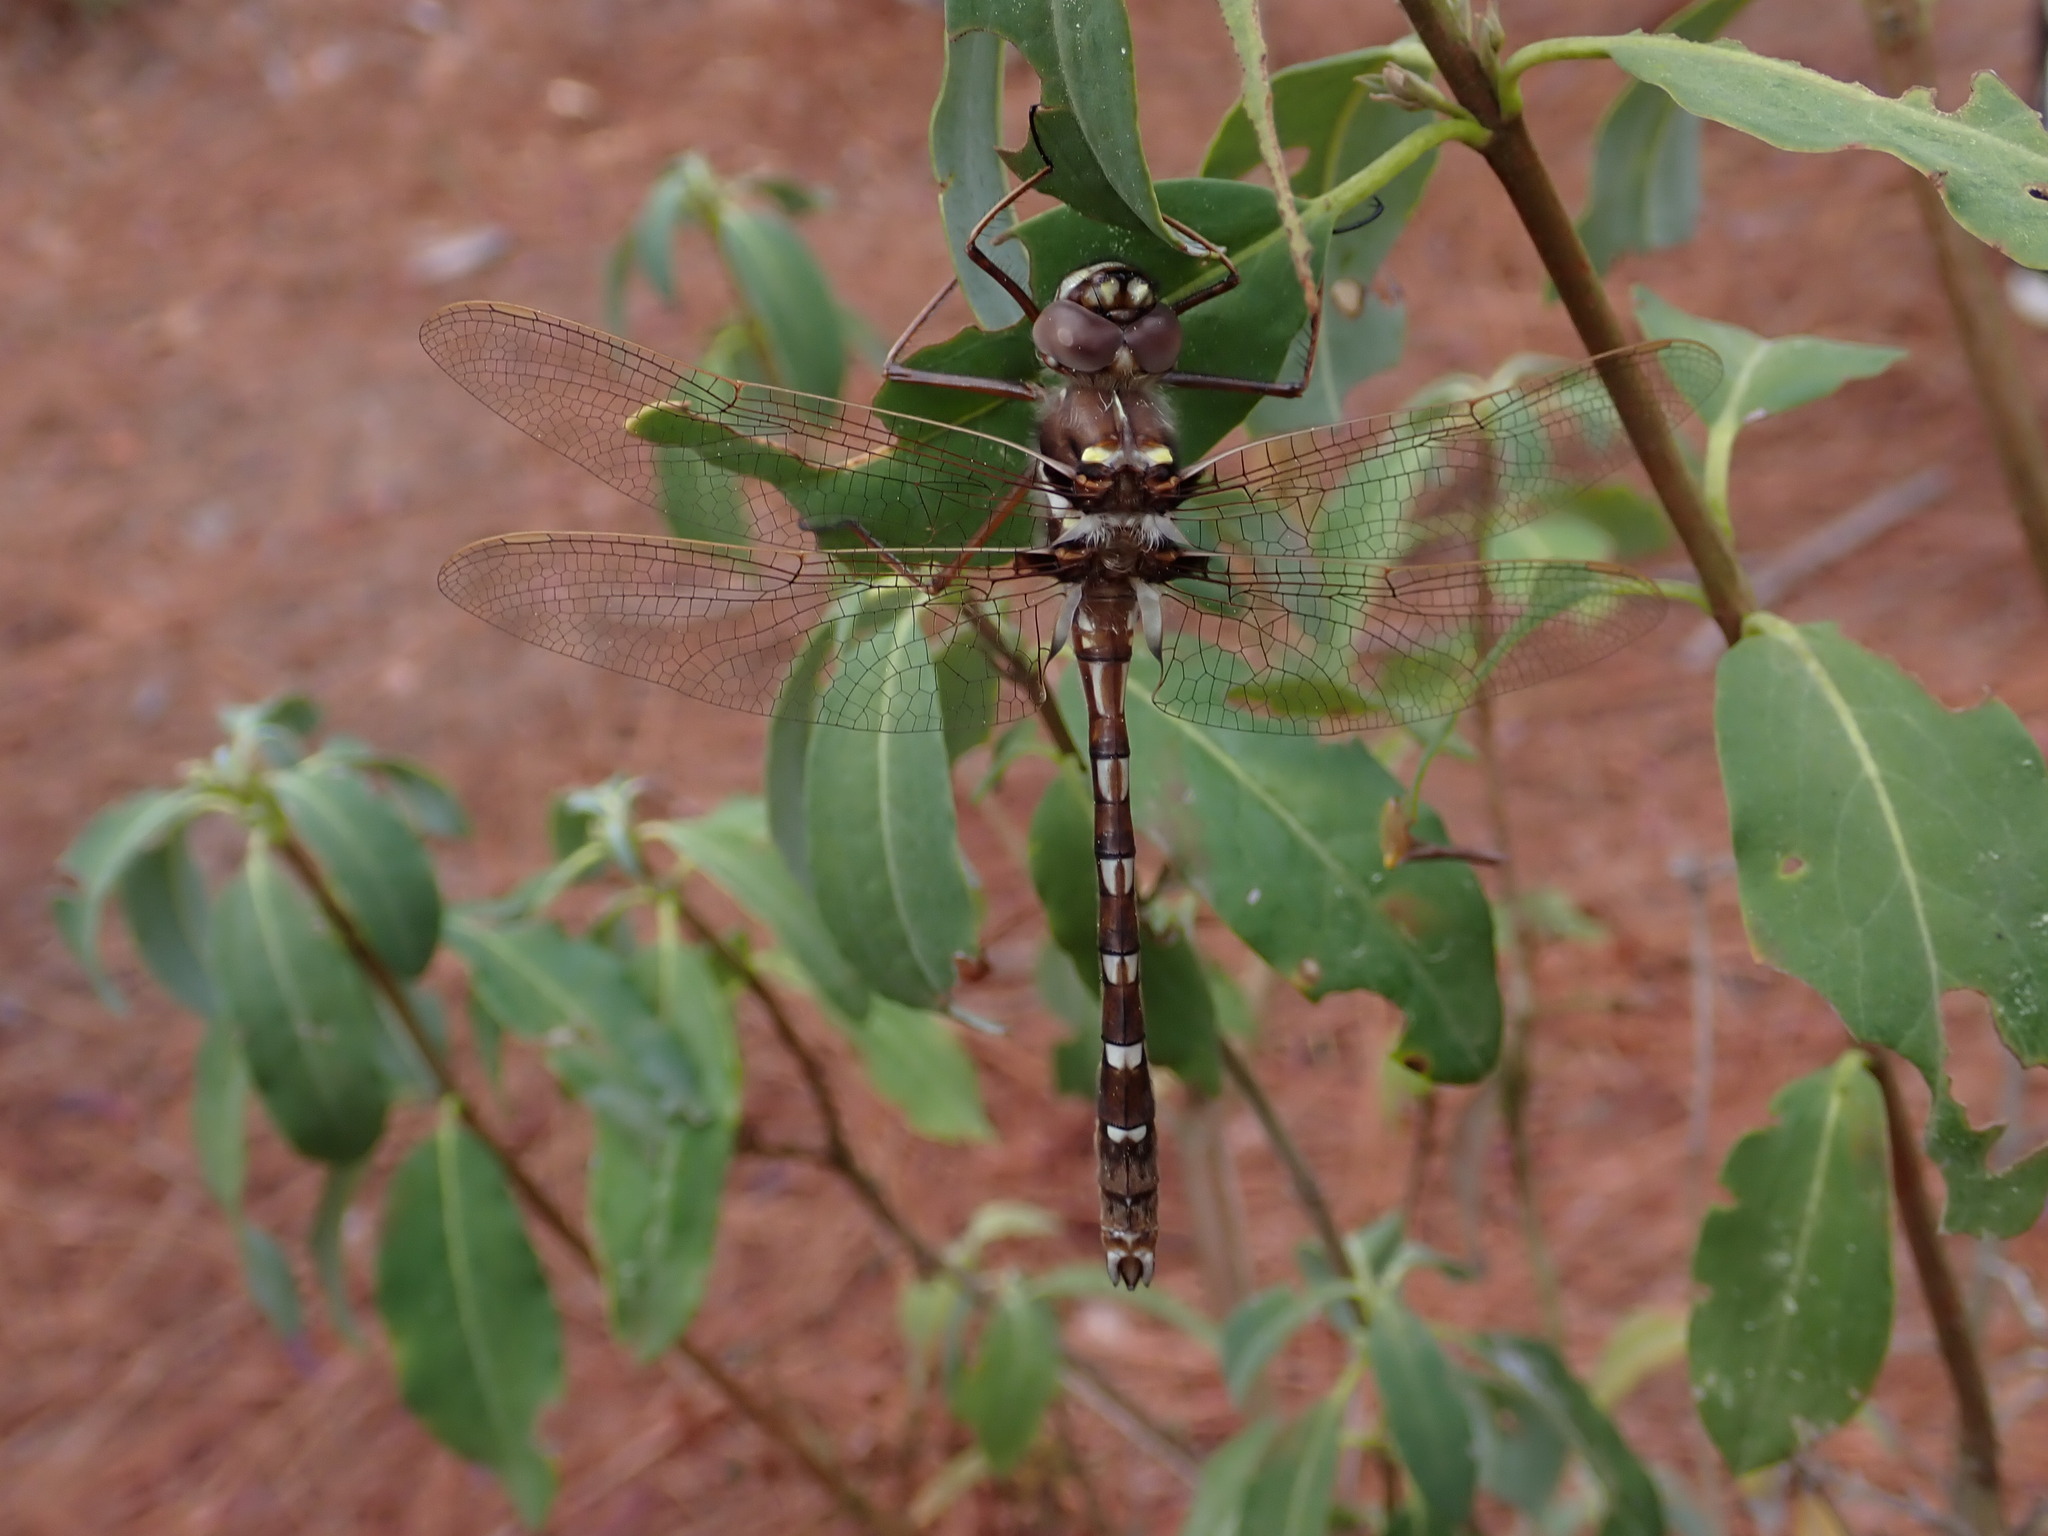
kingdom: Animalia
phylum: Arthropoda
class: Insecta
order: Odonata
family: Macromiidae
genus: Didymops
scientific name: Didymops transversa
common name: Stream cruiser
